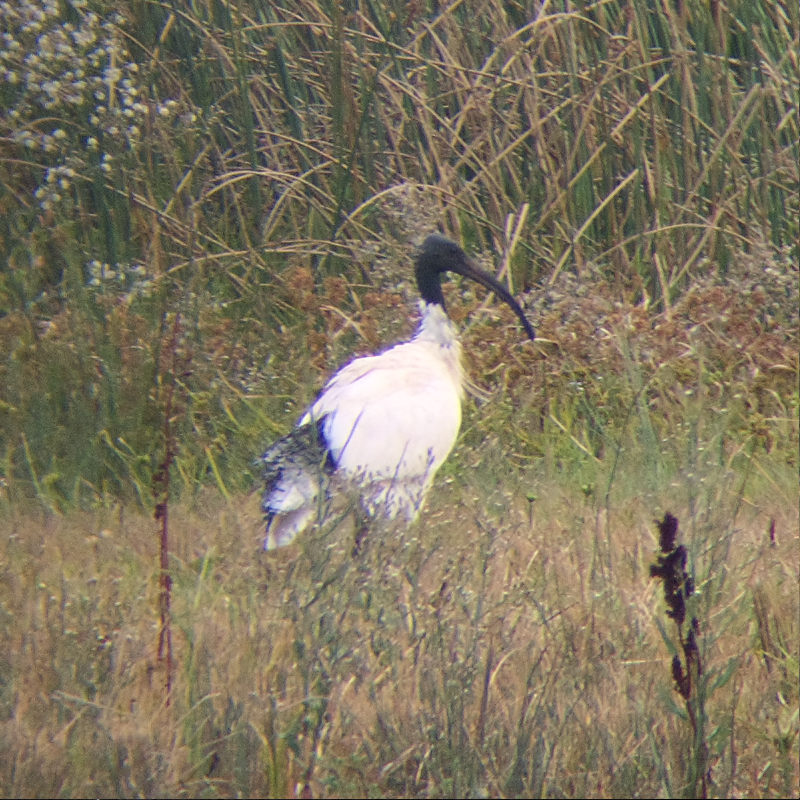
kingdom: Animalia
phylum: Chordata
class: Aves
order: Pelecaniformes
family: Threskiornithidae
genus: Threskiornis
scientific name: Threskiornis molucca
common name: Australian white ibis
